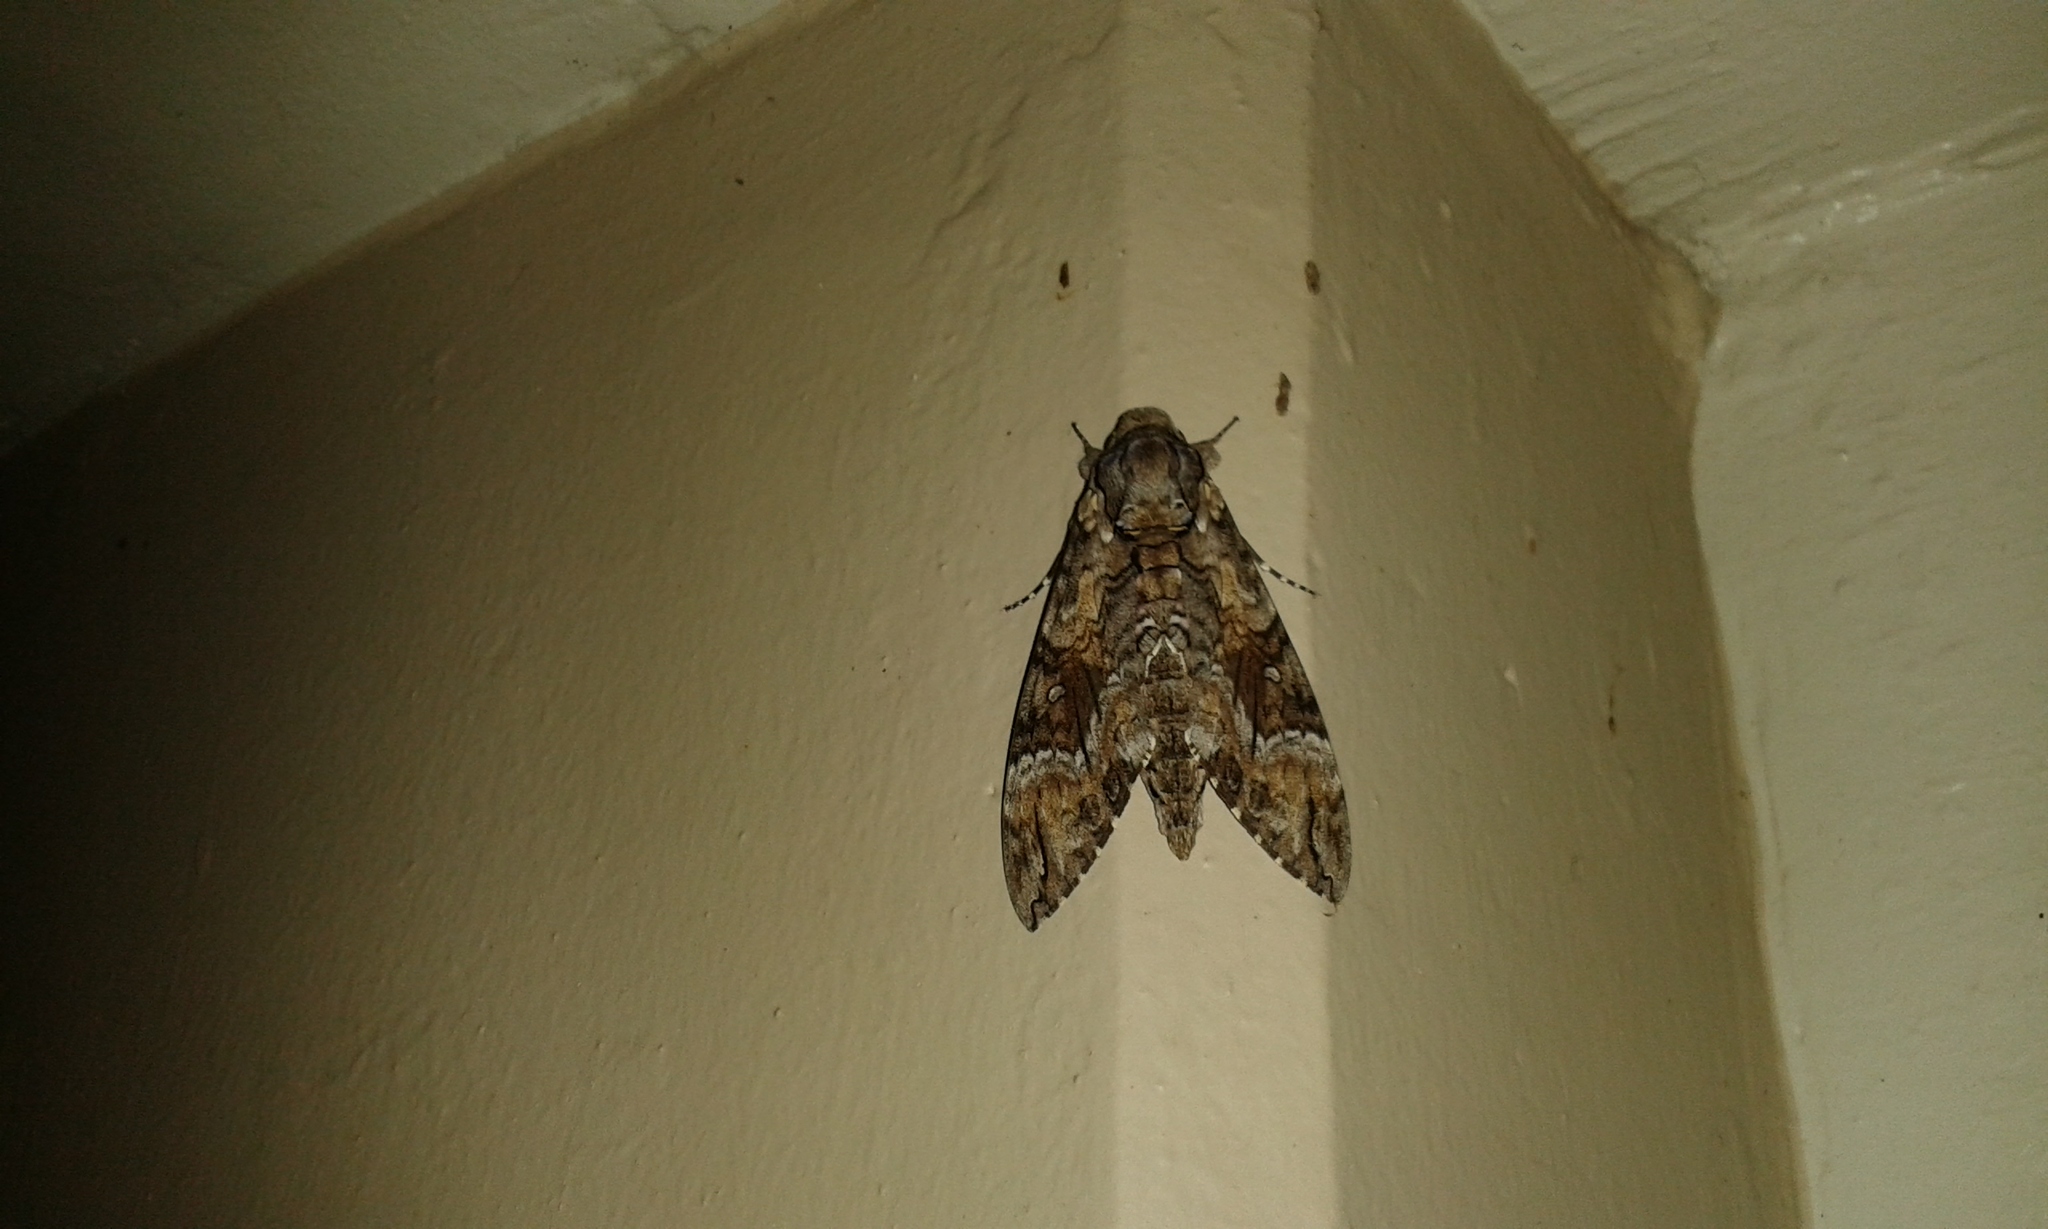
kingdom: Animalia
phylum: Arthropoda
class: Insecta
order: Lepidoptera
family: Sphingidae
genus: Agrius
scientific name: Agrius cingulata
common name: Pink-spotted hawkmoth
